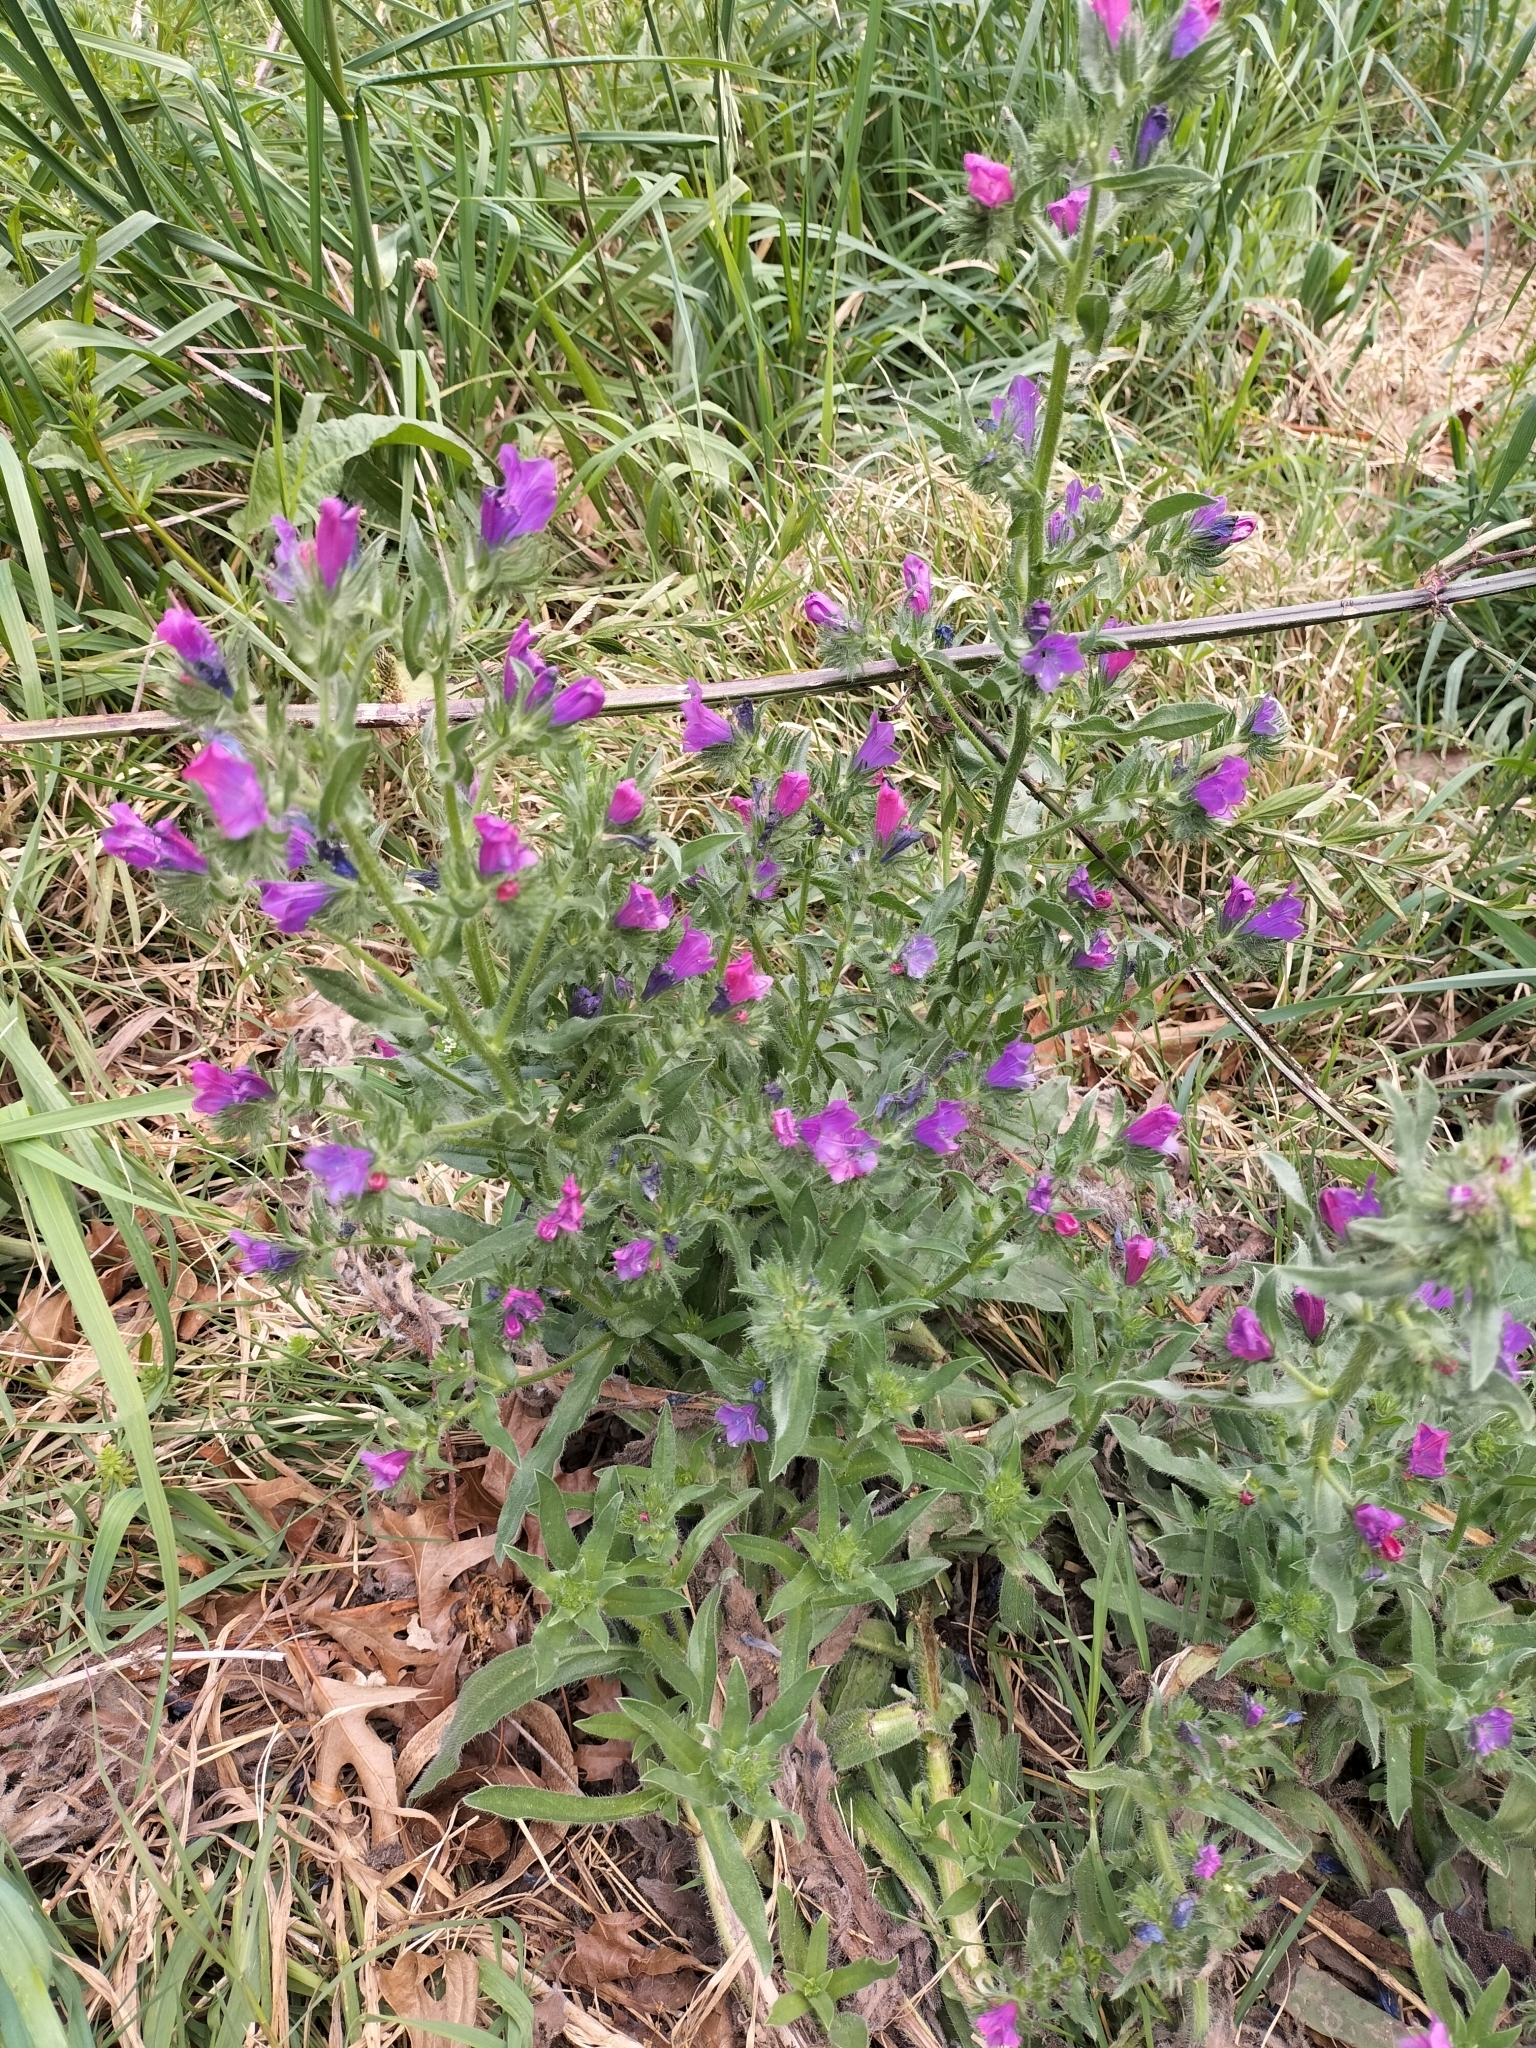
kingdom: Plantae
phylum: Tracheophyta
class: Magnoliopsida
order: Boraginales
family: Boraginaceae
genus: Echium
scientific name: Echium plantagineum
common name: Purple viper's-bugloss
